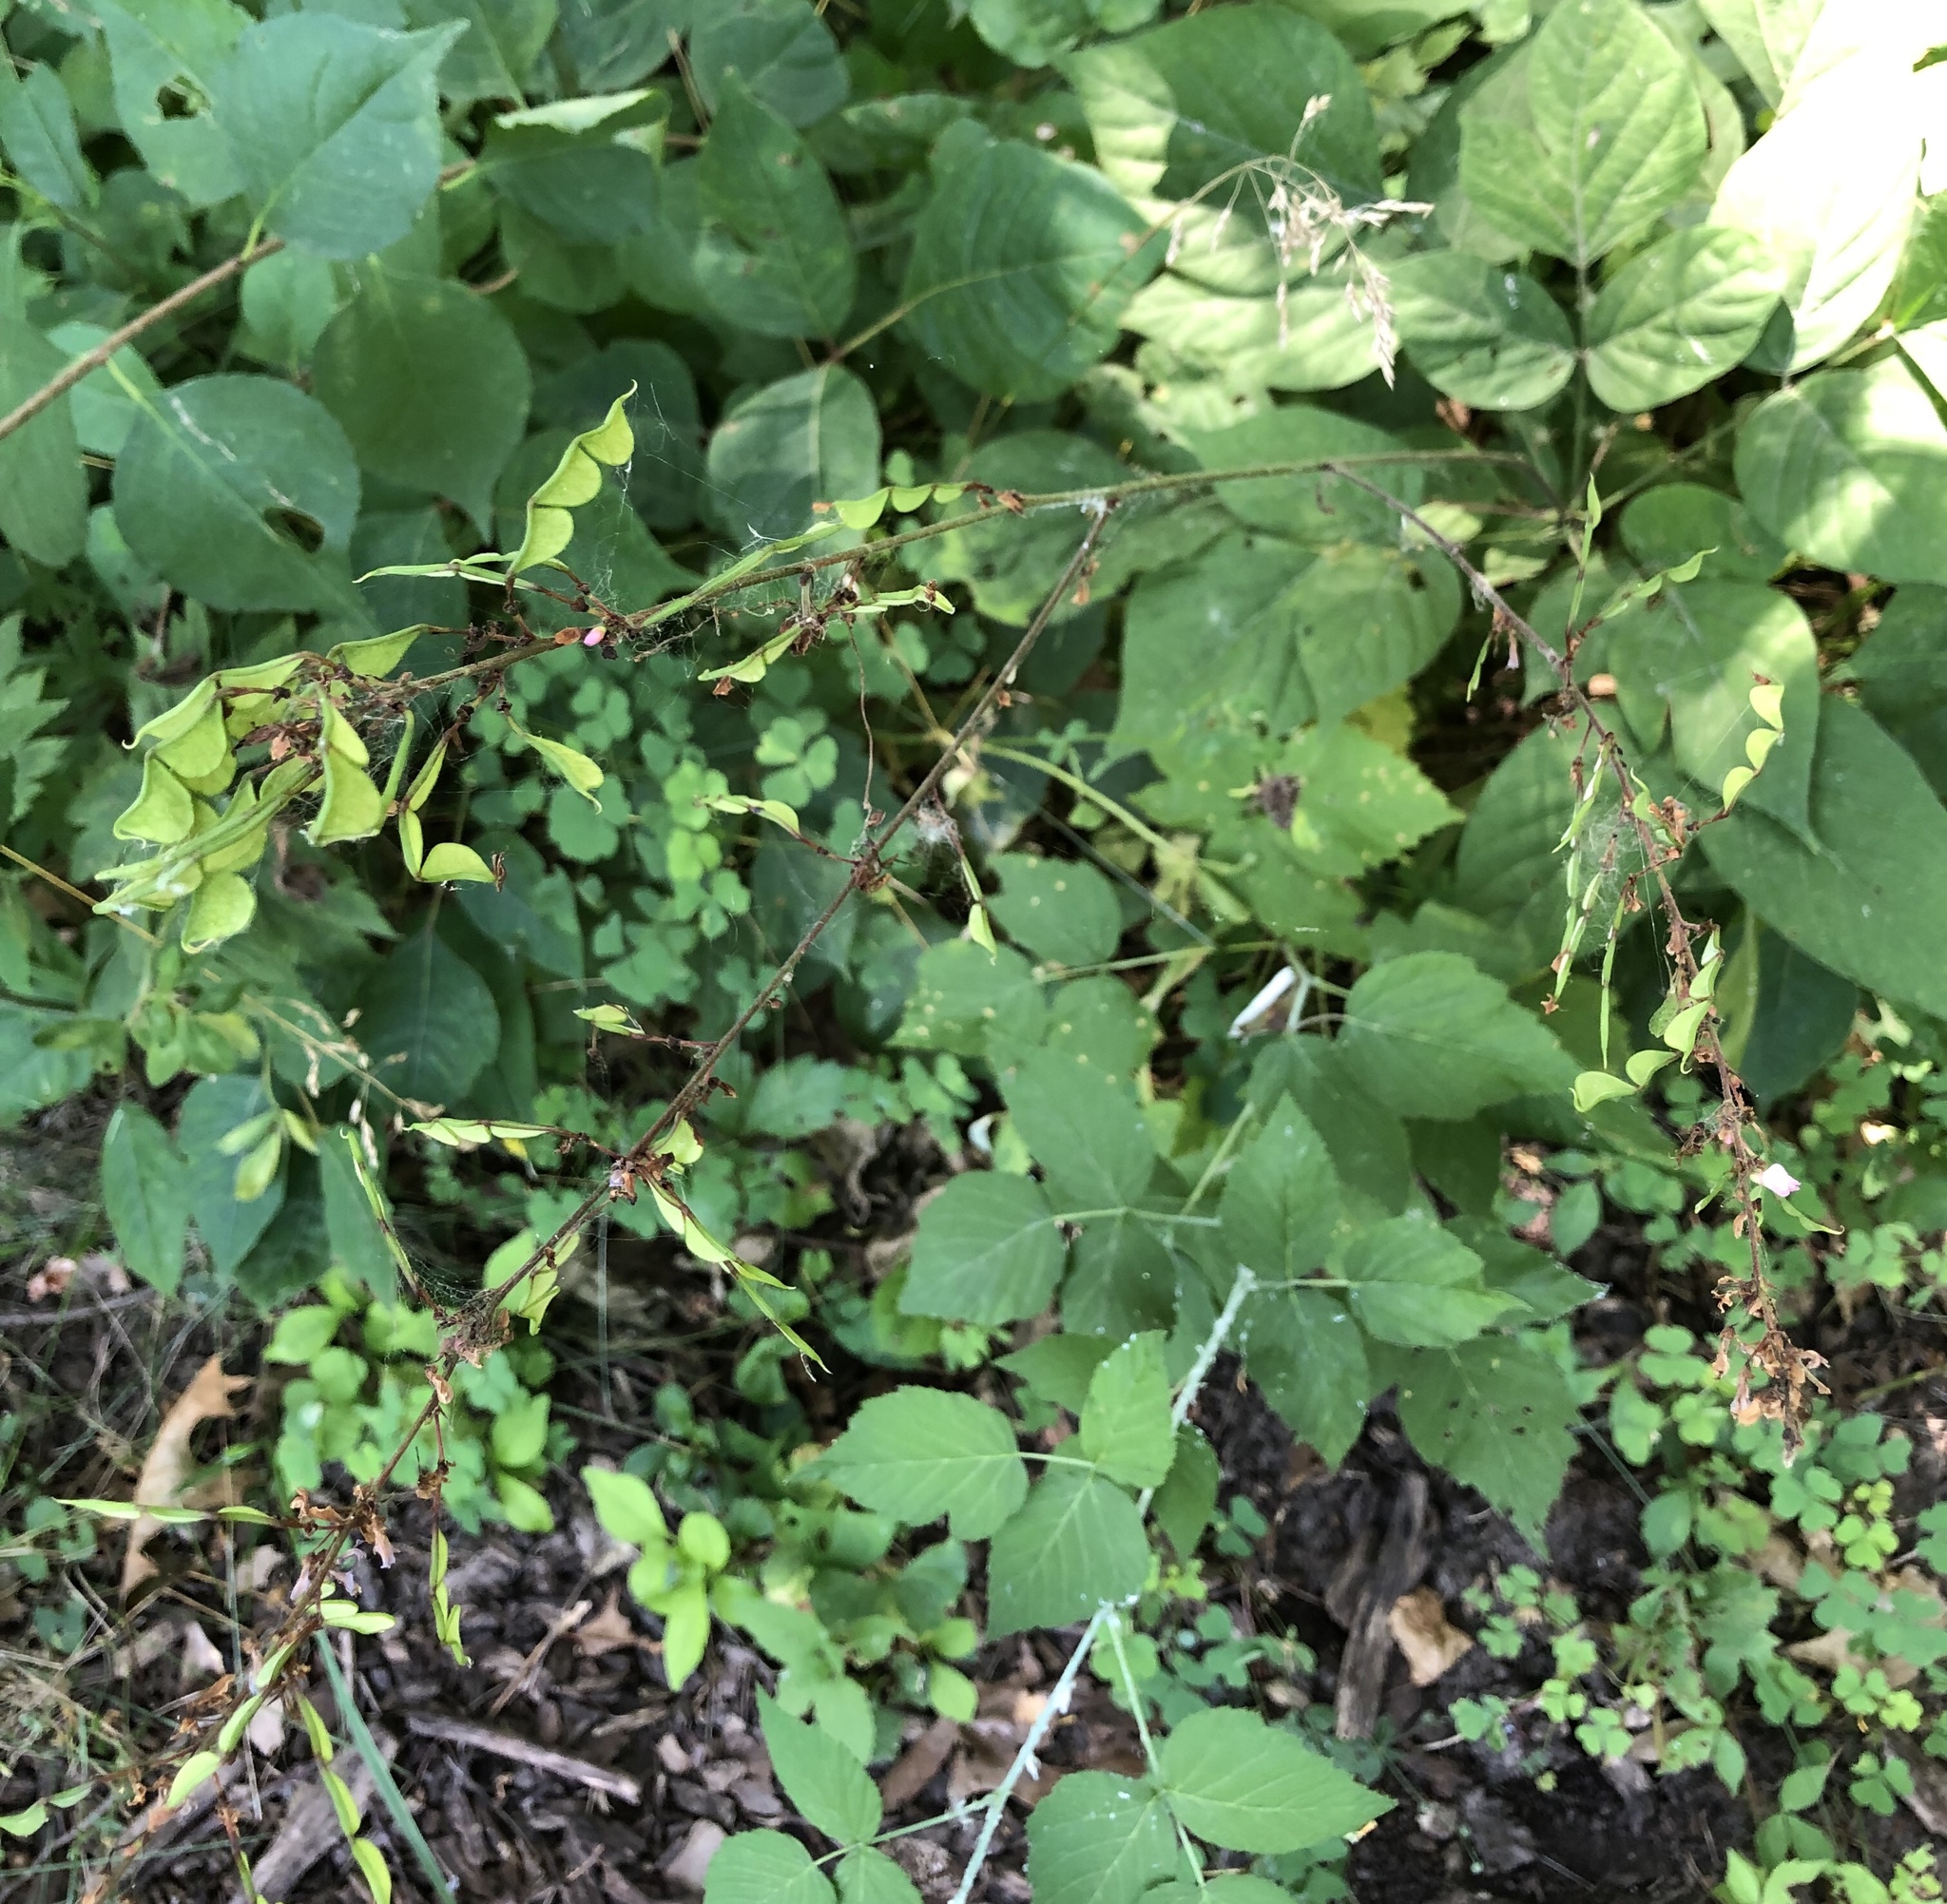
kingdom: Plantae
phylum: Tracheophyta
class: Magnoliopsida
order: Fabales
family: Fabaceae
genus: Hylodesmum
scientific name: Hylodesmum glutinosum
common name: Clustered-leaved tick-trefoil
